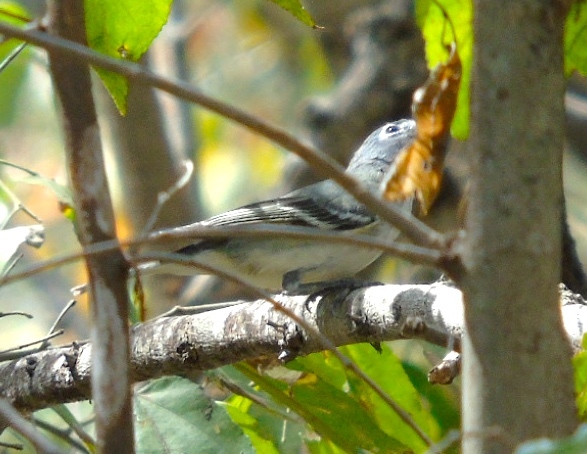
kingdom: Animalia
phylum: Chordata
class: Aves
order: Passeriformes
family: Vireonidae
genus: Vireo
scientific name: Vireo plumbeus
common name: Plumbeous vireo
